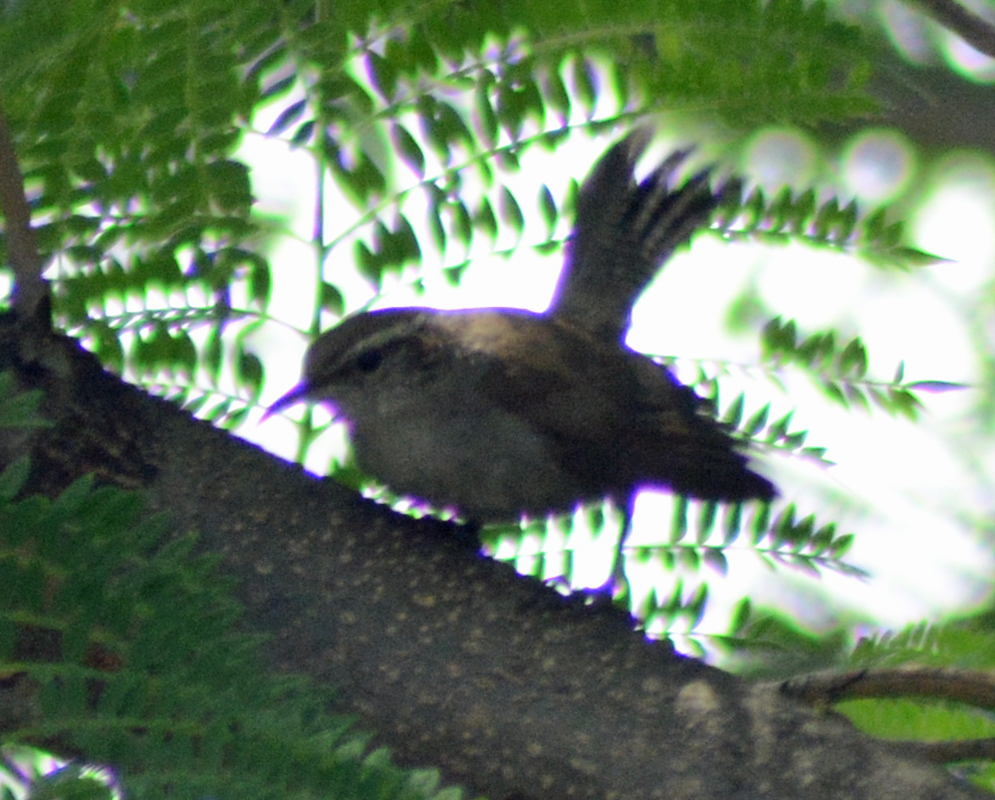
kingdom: Animalia
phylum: Chordata
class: Aves
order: Passeriformes
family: Troglodytidae
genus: Thryomanes
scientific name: Thryomanes bewickii
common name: Bewick's wren
